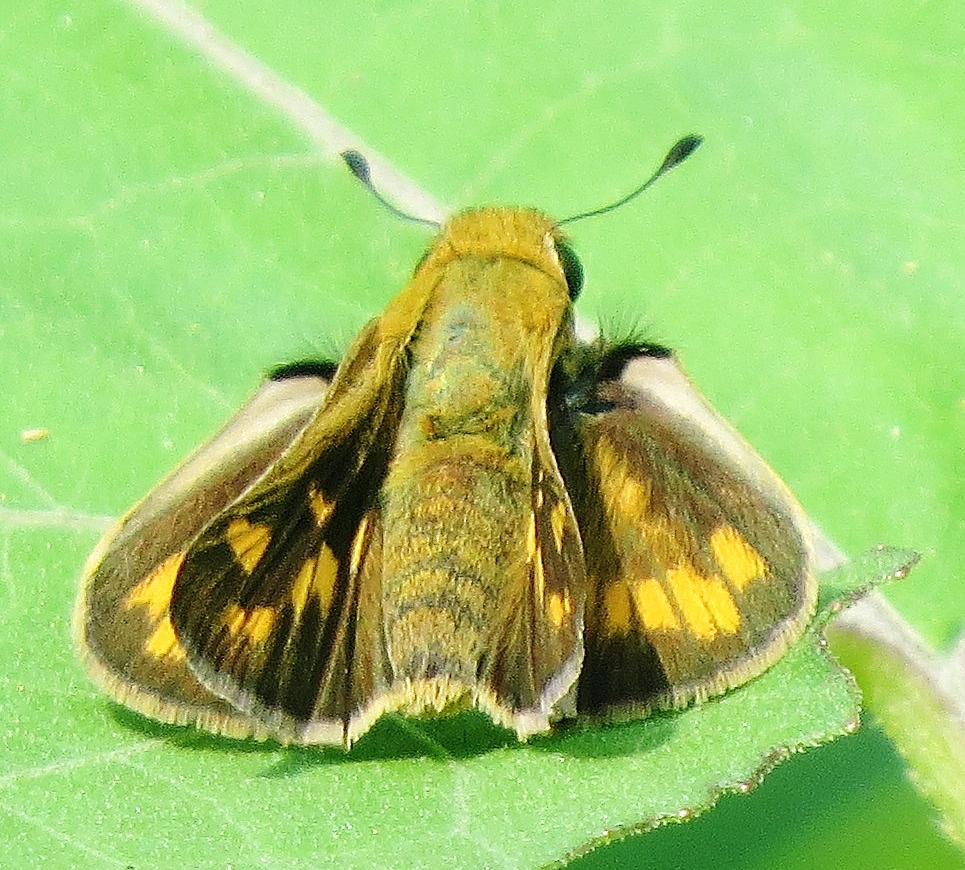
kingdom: Animalia
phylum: Arthropoda
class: Insecta
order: Lepidoptera
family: Hesperiidae
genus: Hylephila
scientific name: Hylephila phyleus
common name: Fiery skipper
